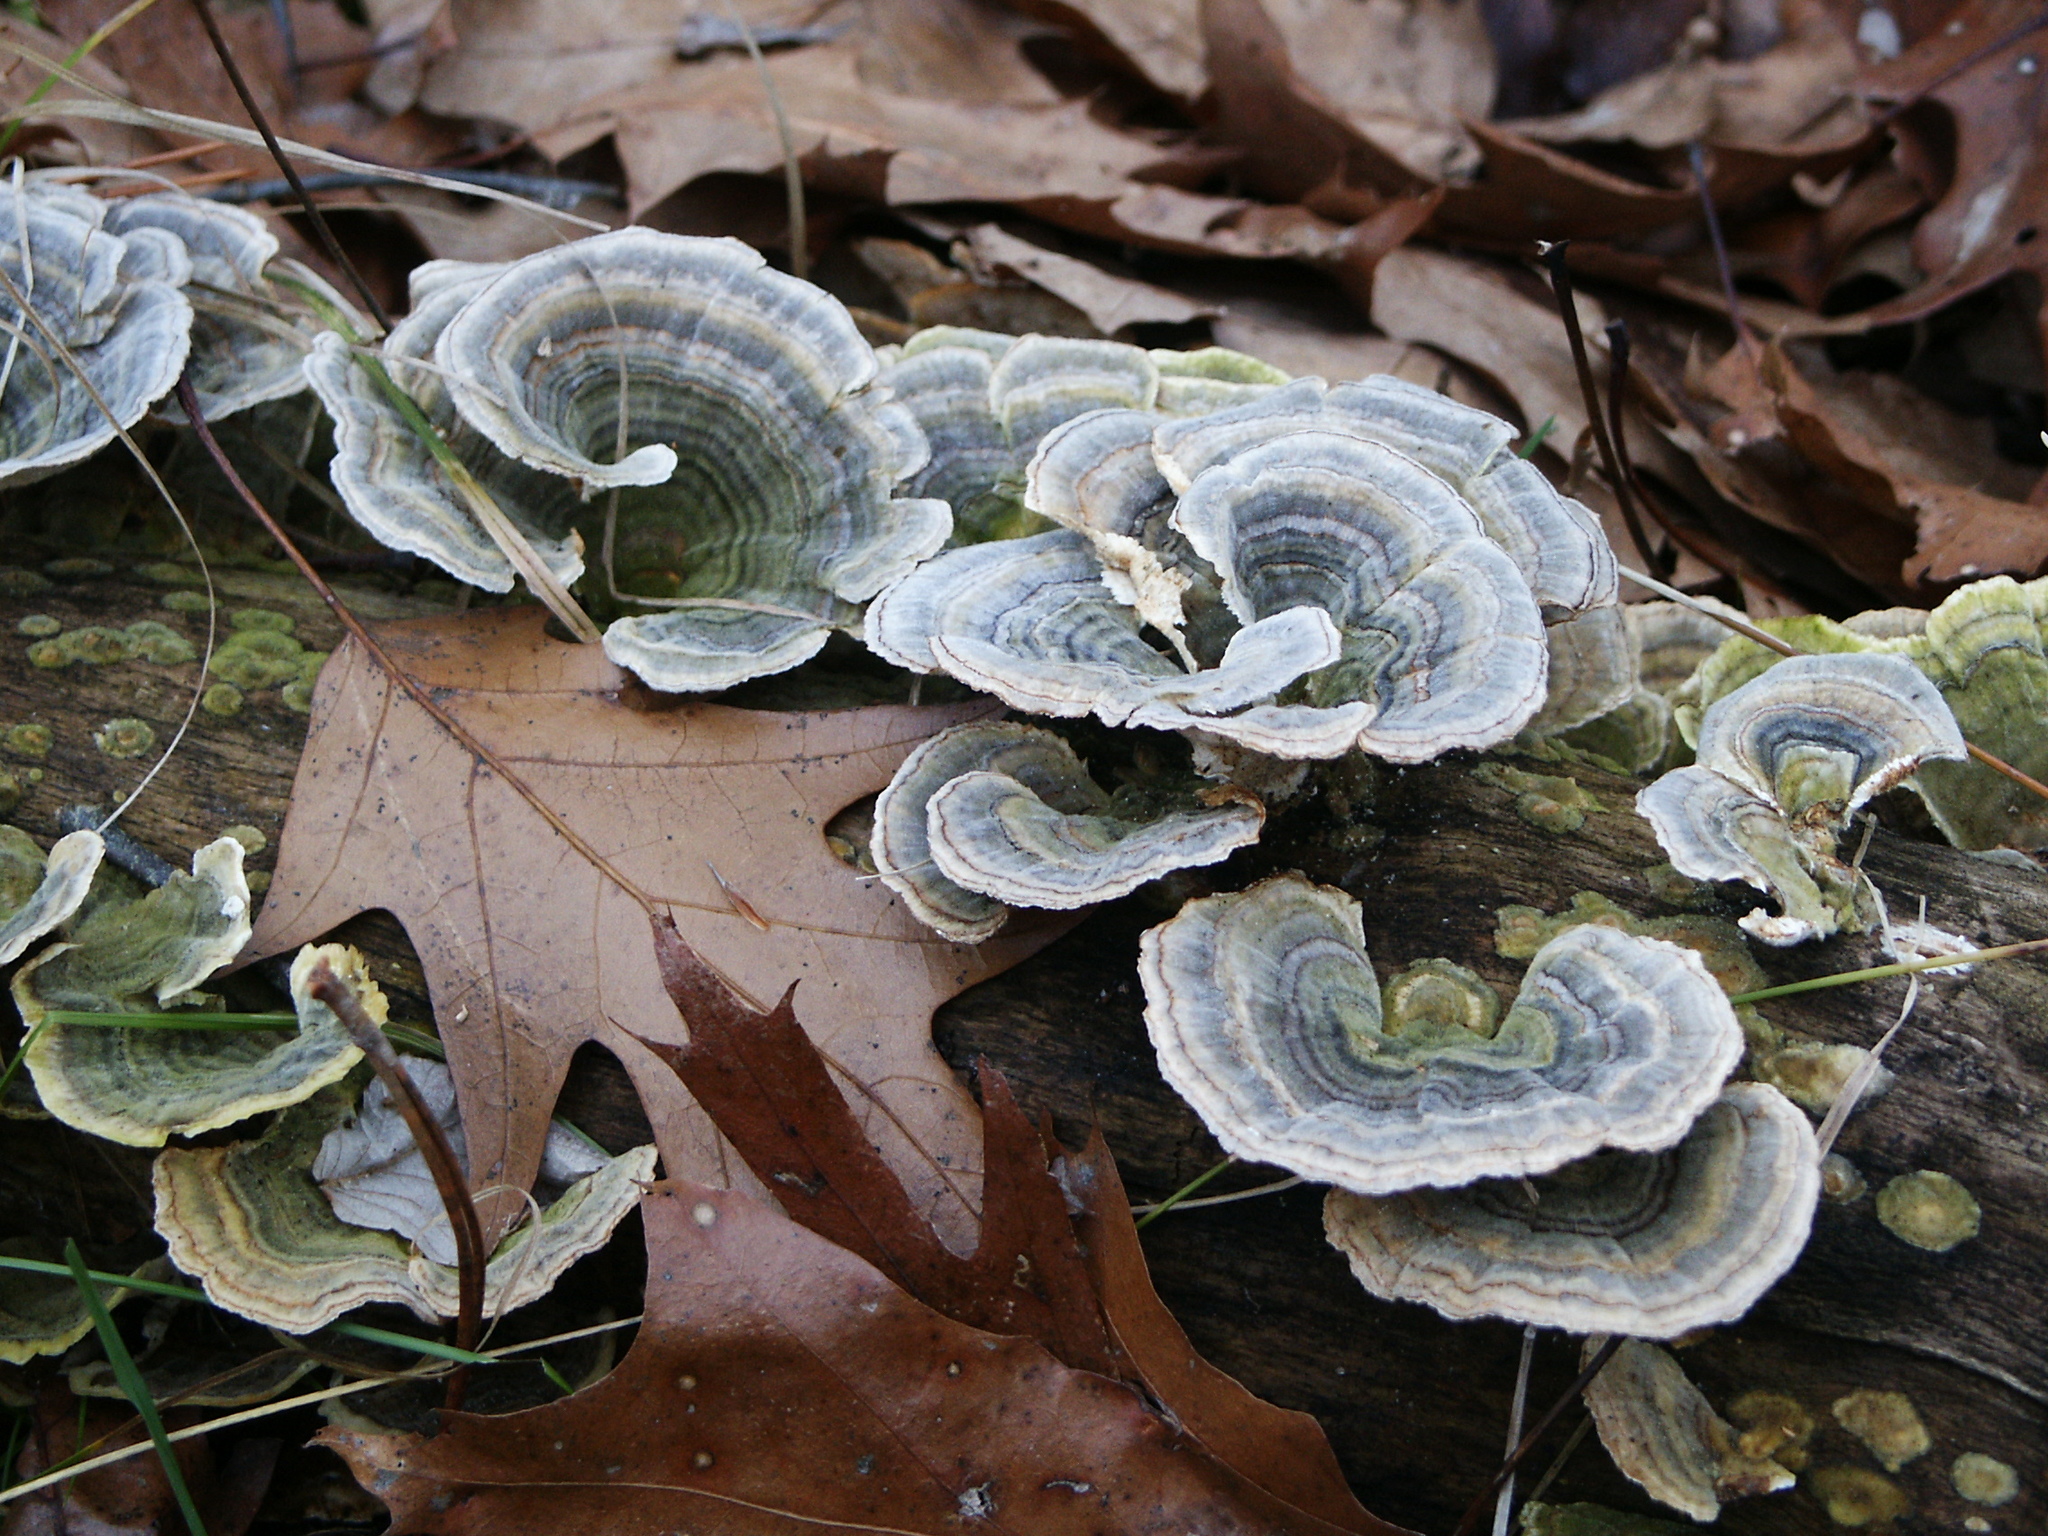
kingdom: Fungi
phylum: Basidiomycota
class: Agaricomycetes
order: Polyporales
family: Polyporaceae
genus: Trametes
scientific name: Trametes versicolor
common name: Turkeytail
